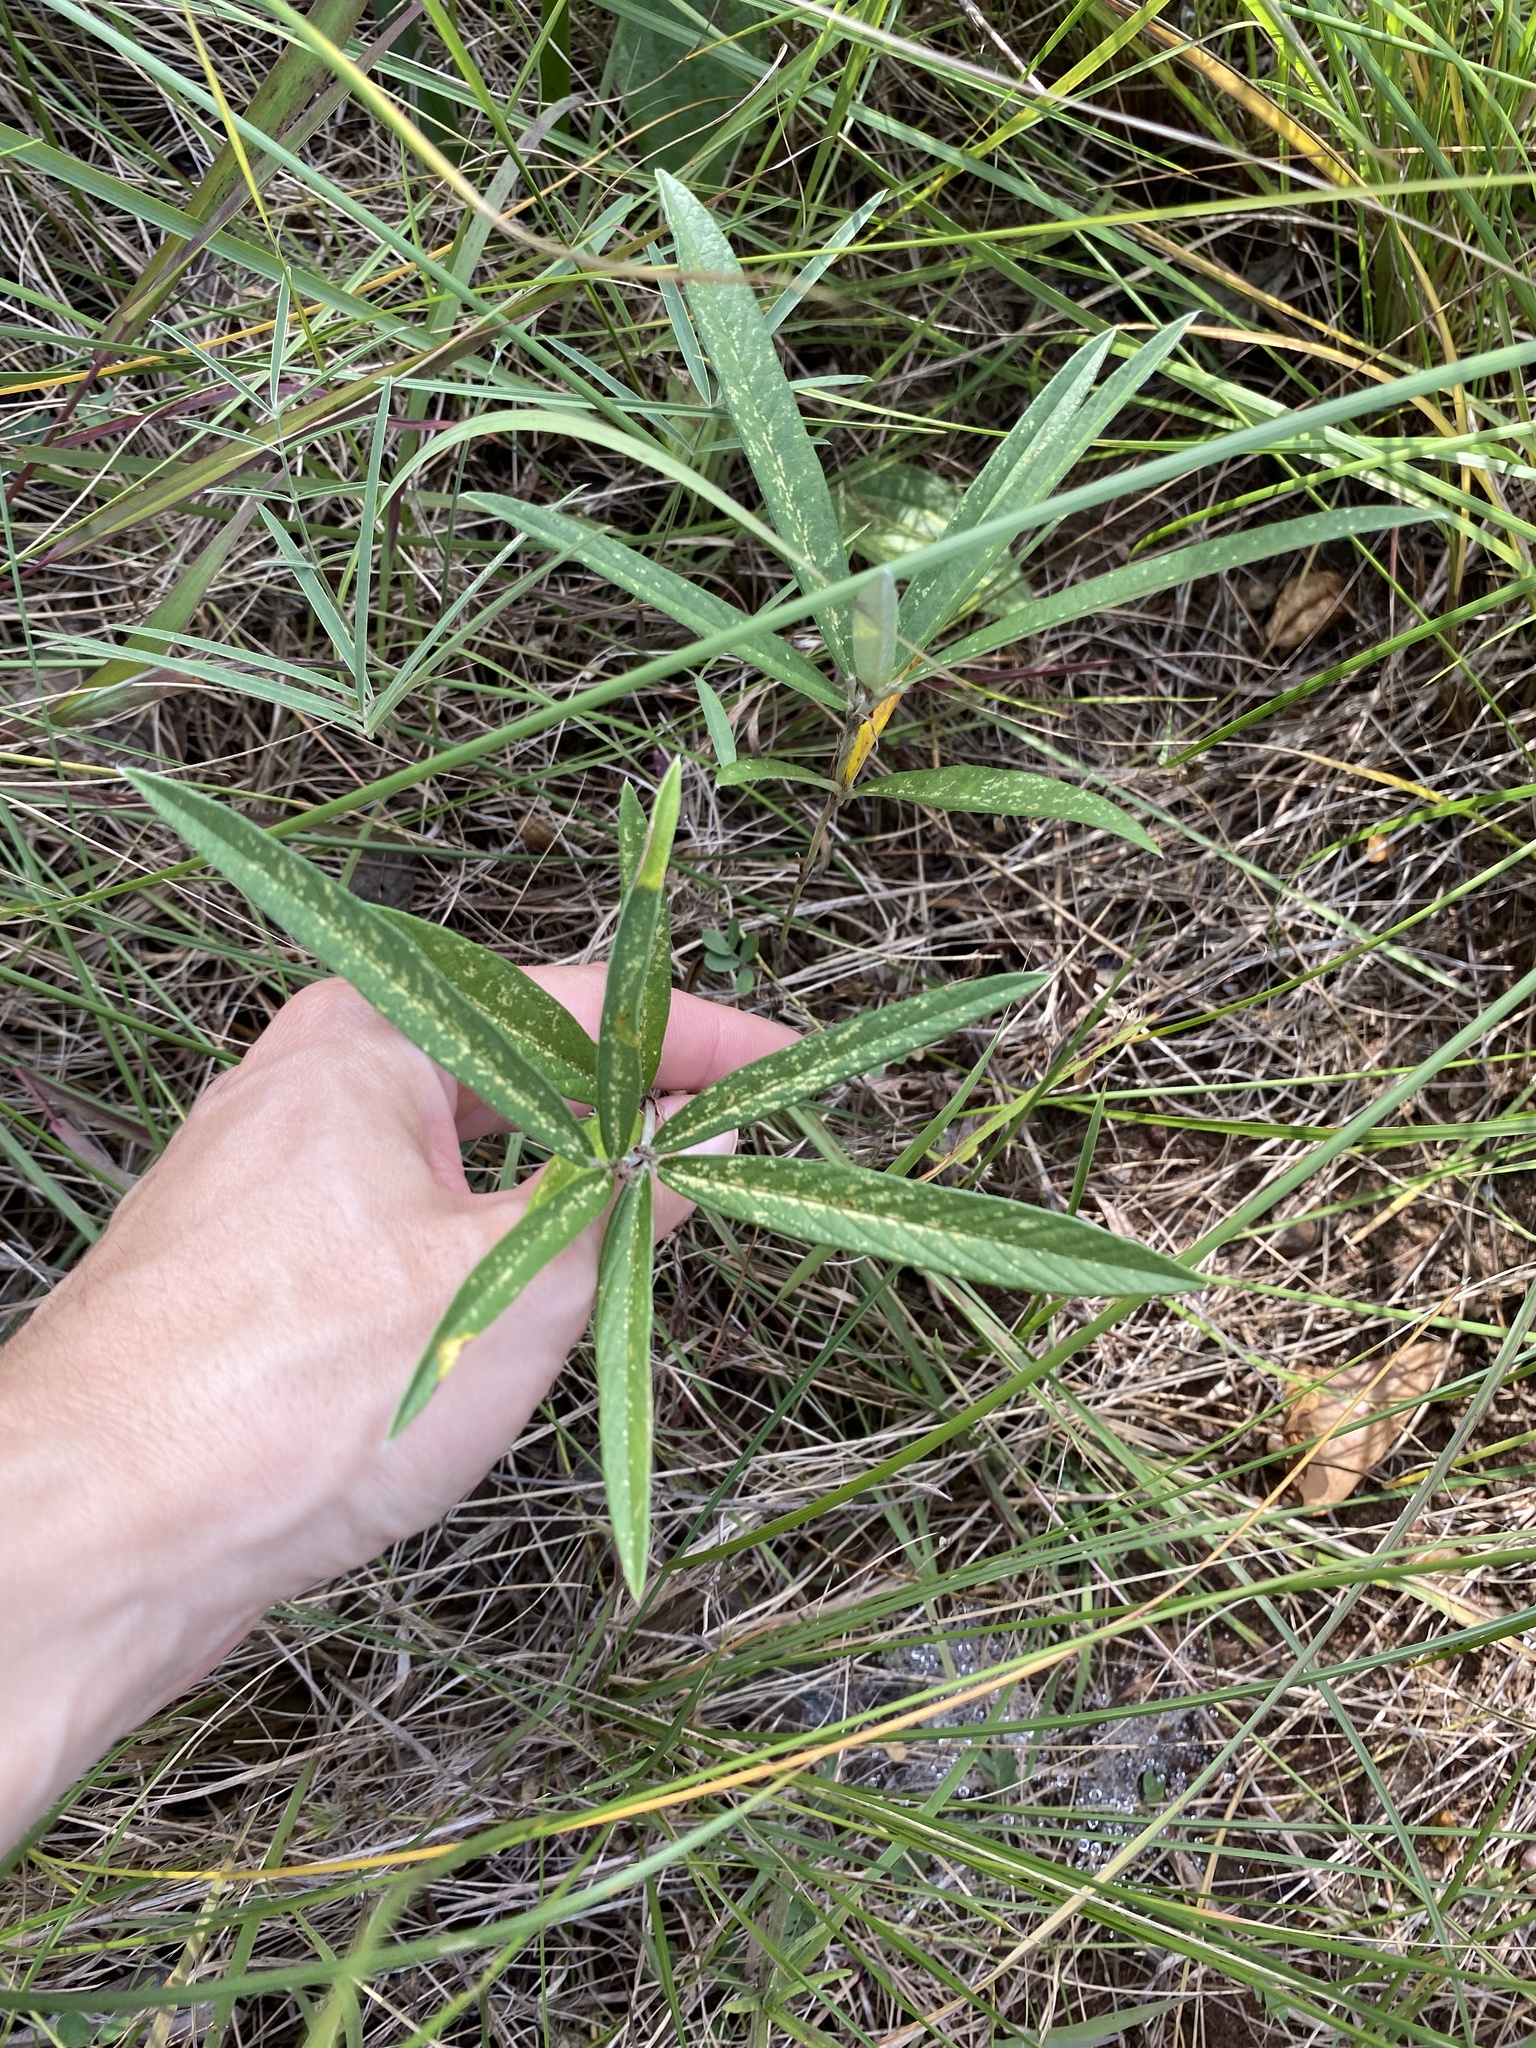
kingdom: Plantae
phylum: Tracheophyta
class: Magnoliopsida
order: Fabales
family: Fabaceae
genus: Eriosema
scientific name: Eriosema salignum
